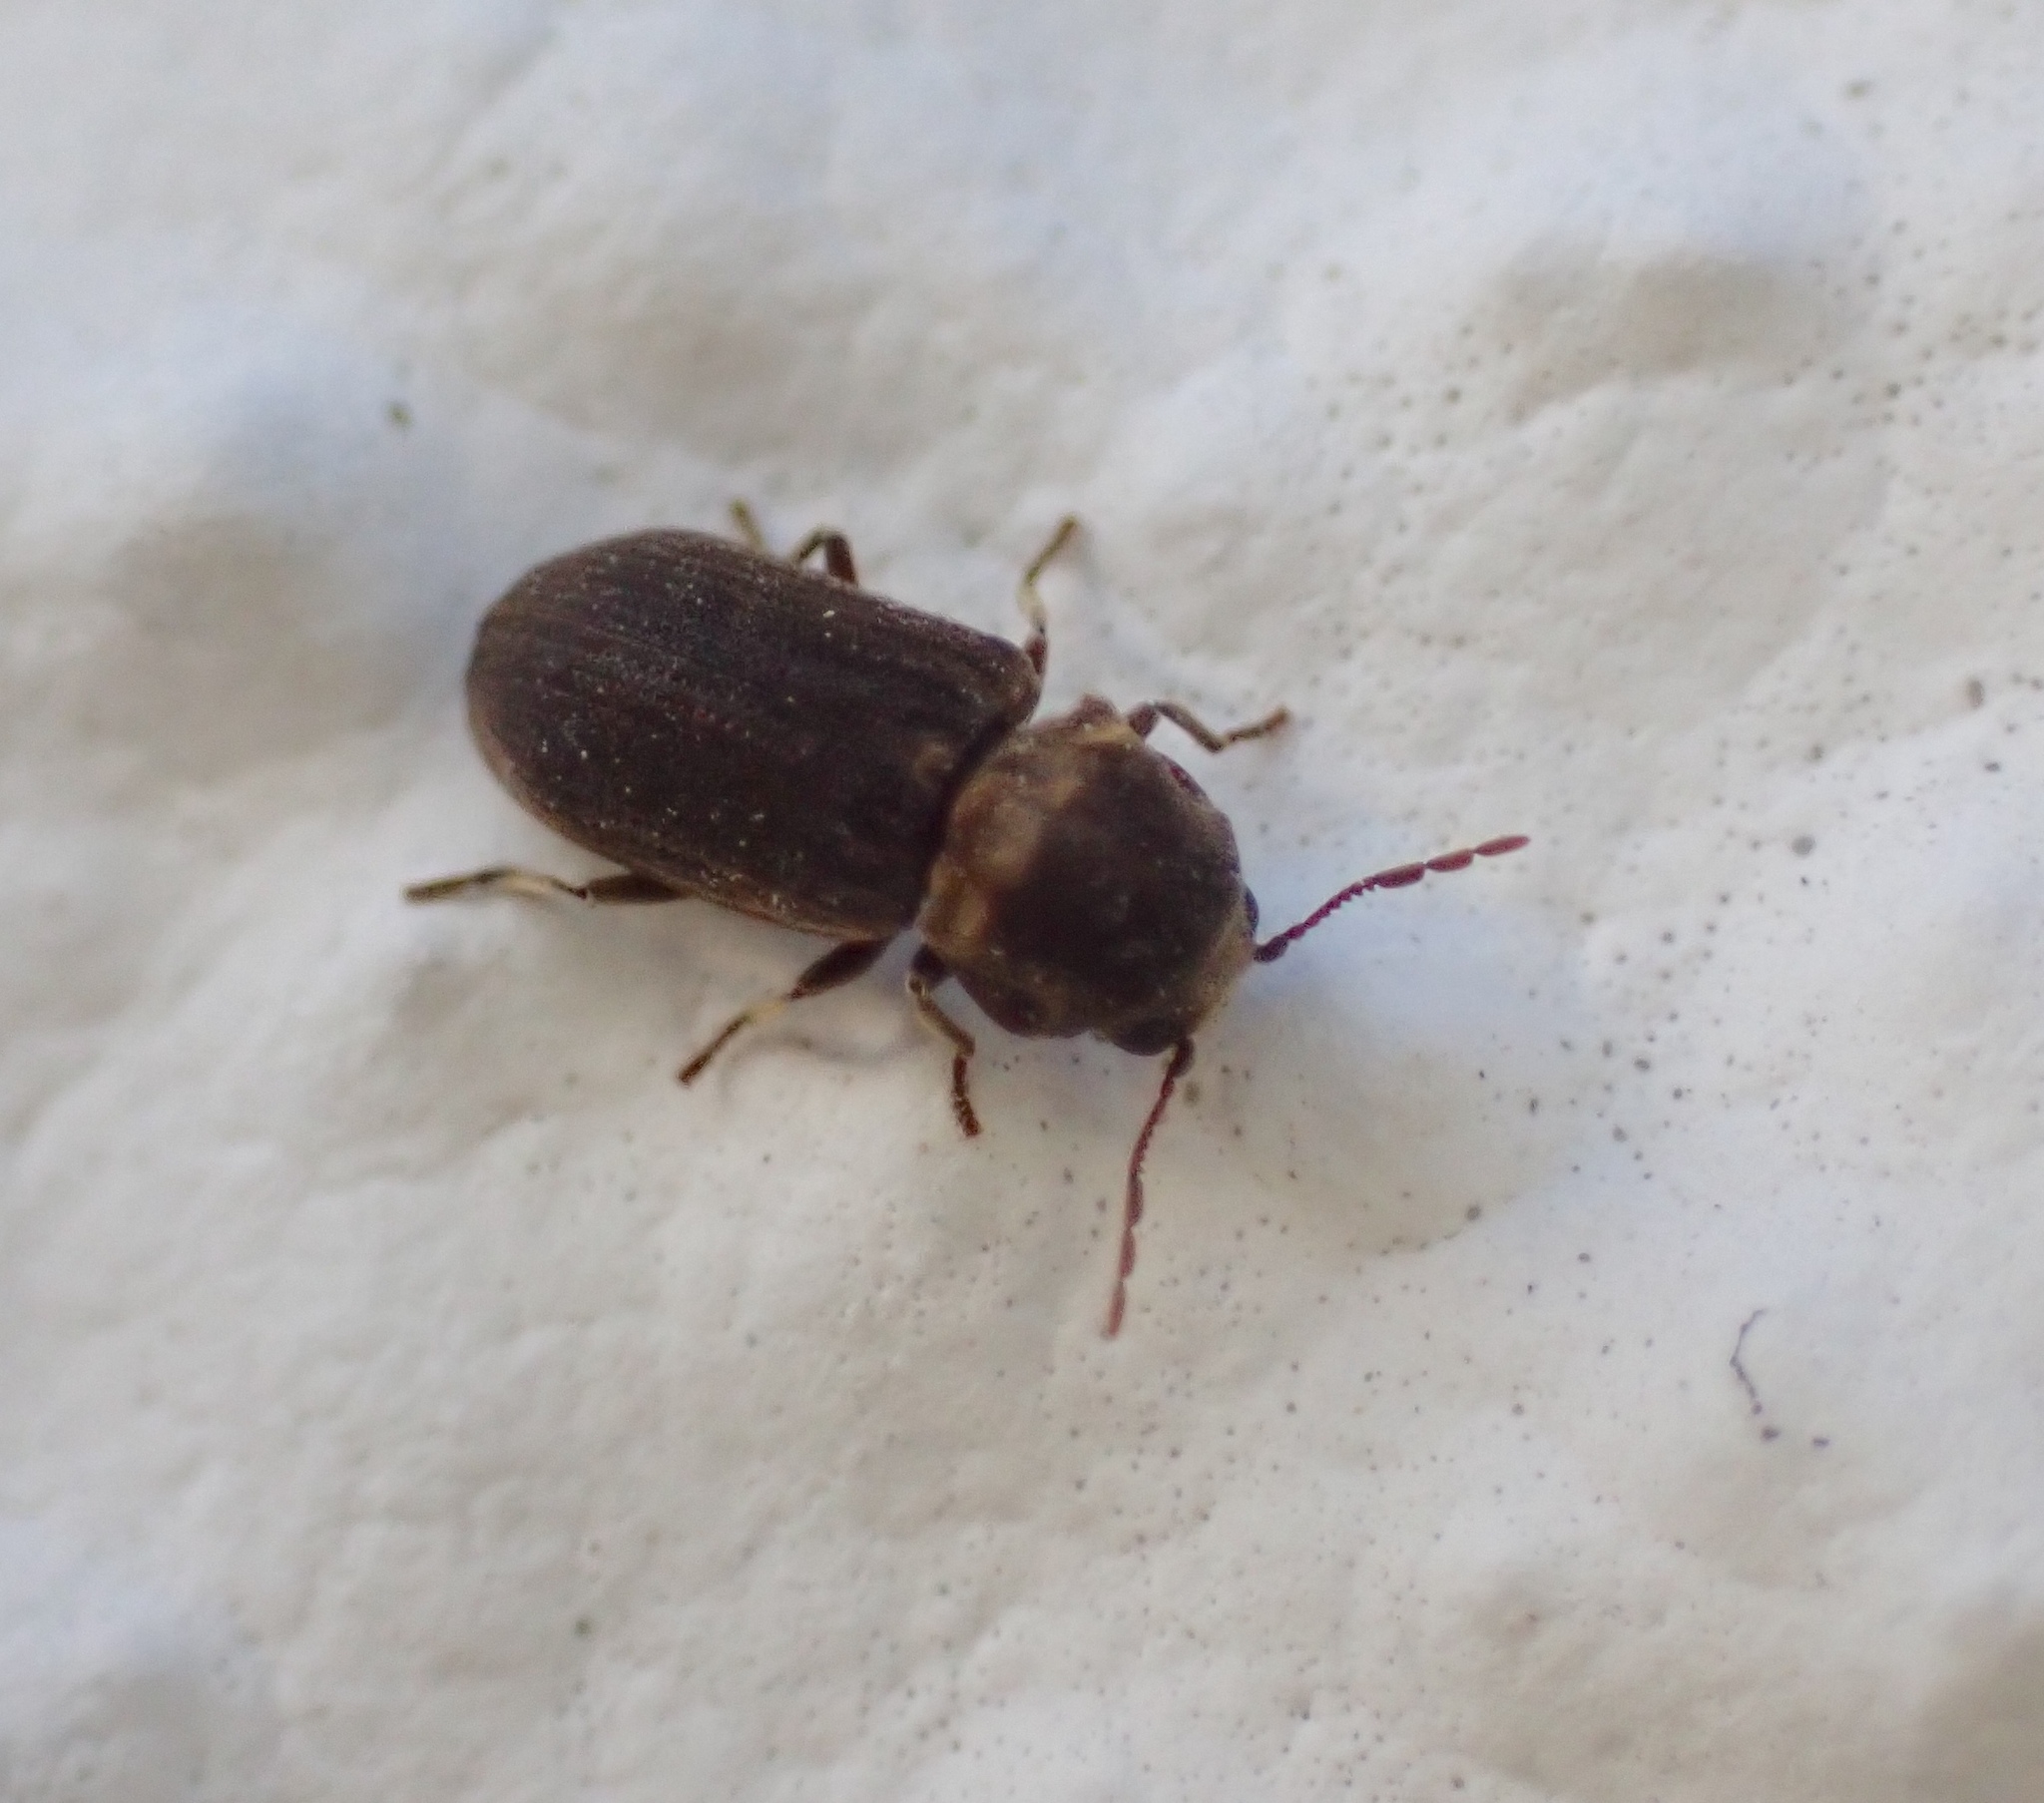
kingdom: Animalia
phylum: Arthropoda
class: Insecta
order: Coleoptera
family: Anobiidae
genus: Hadrobregmus
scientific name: Hadrobregmus denticollis
